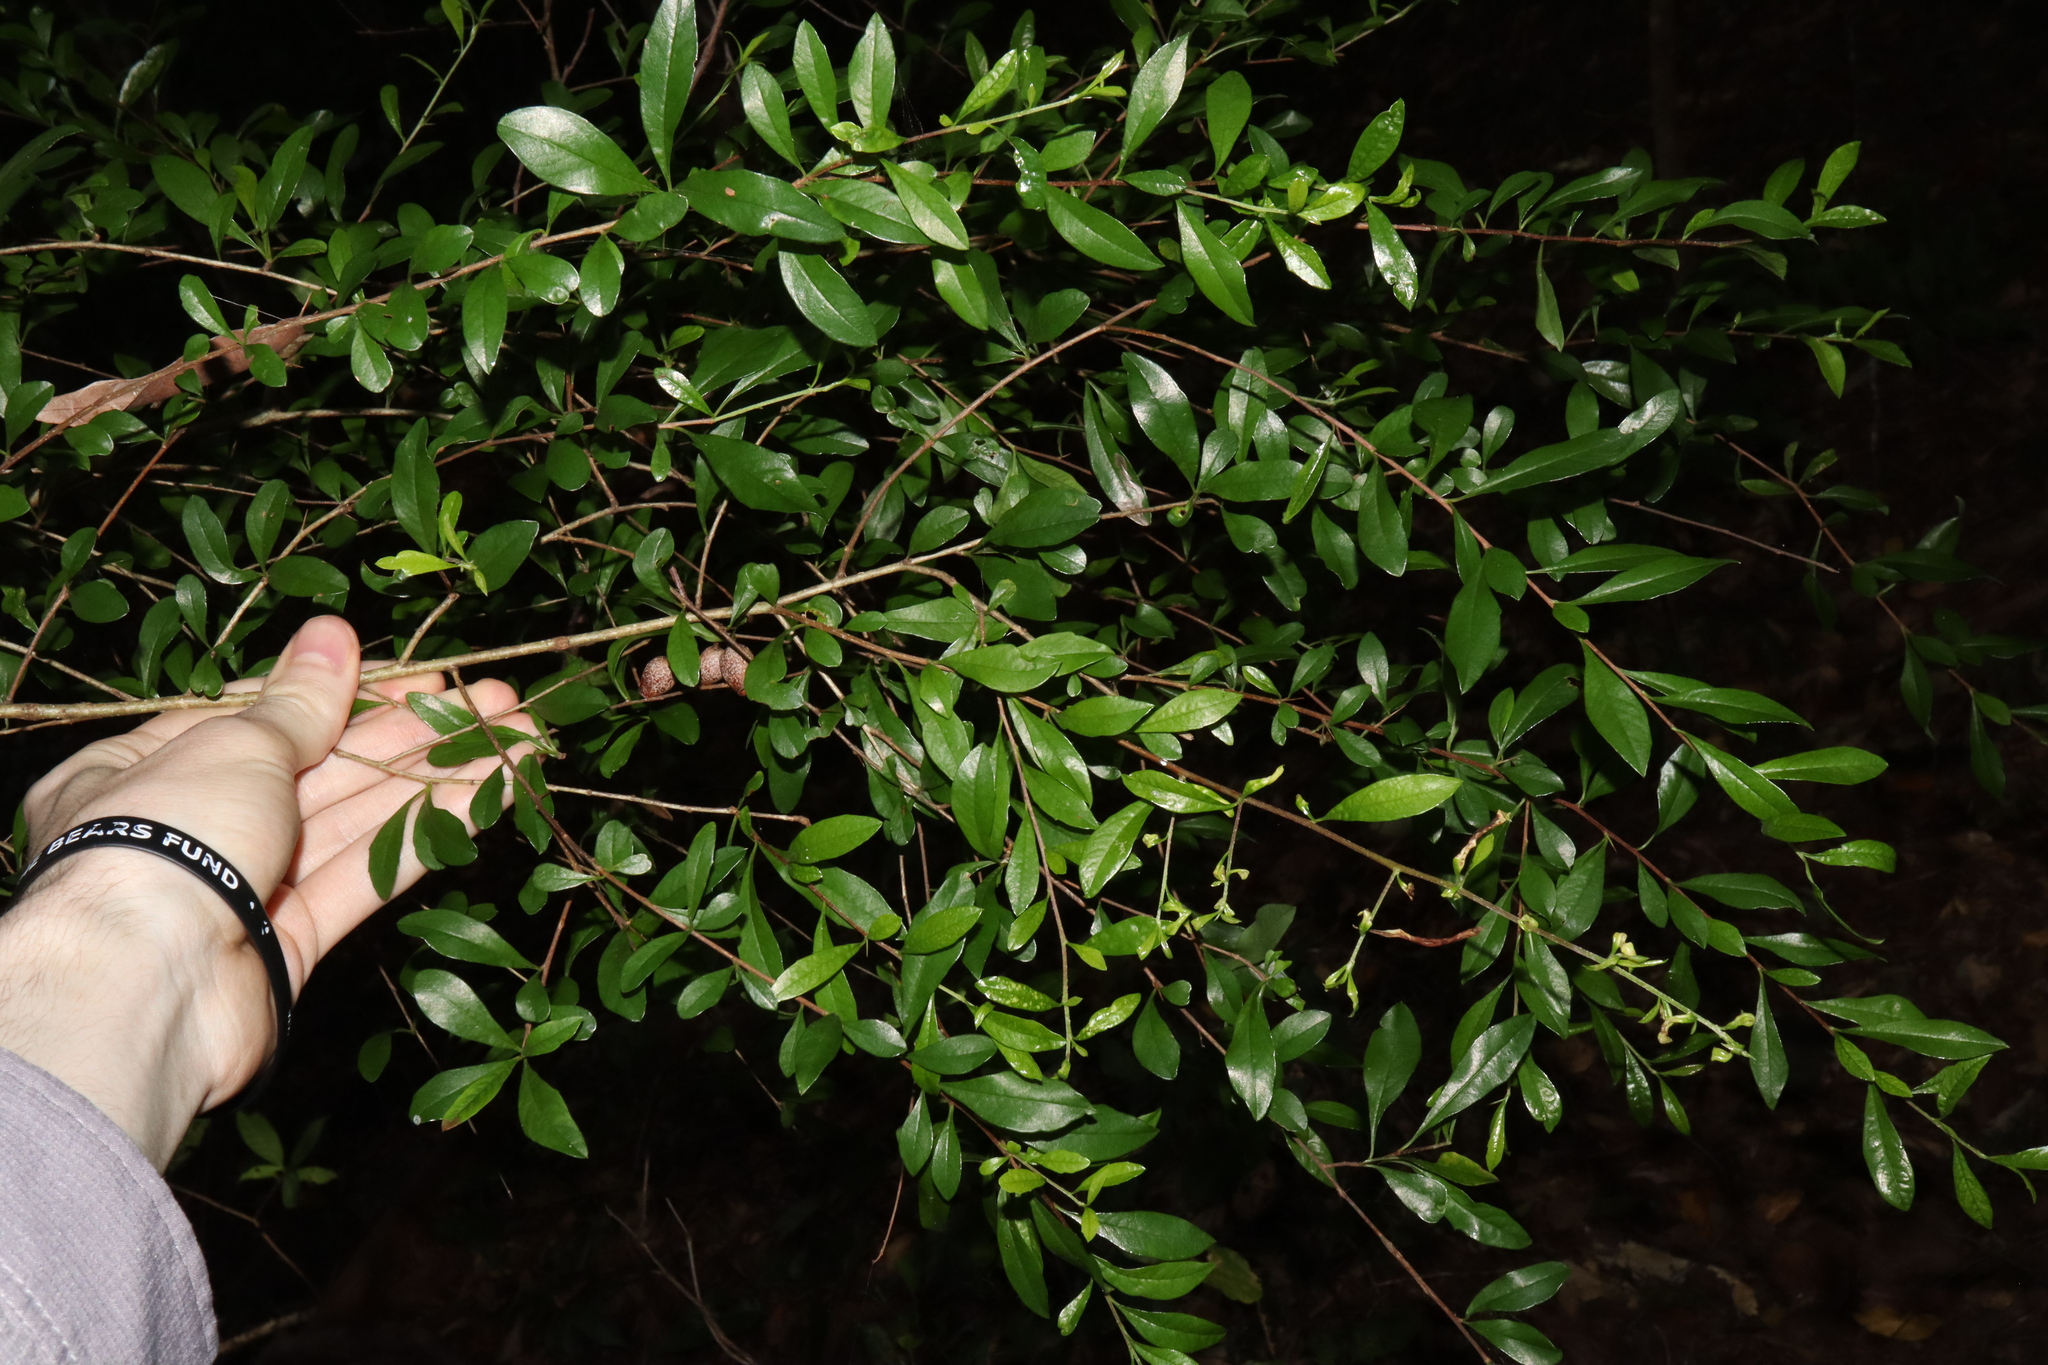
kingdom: Plantae
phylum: Tracheophyta
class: Magnoliopsida
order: Apiales
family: Pittosporaceae
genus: Bursaria
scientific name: Bursaria tenuifolia
